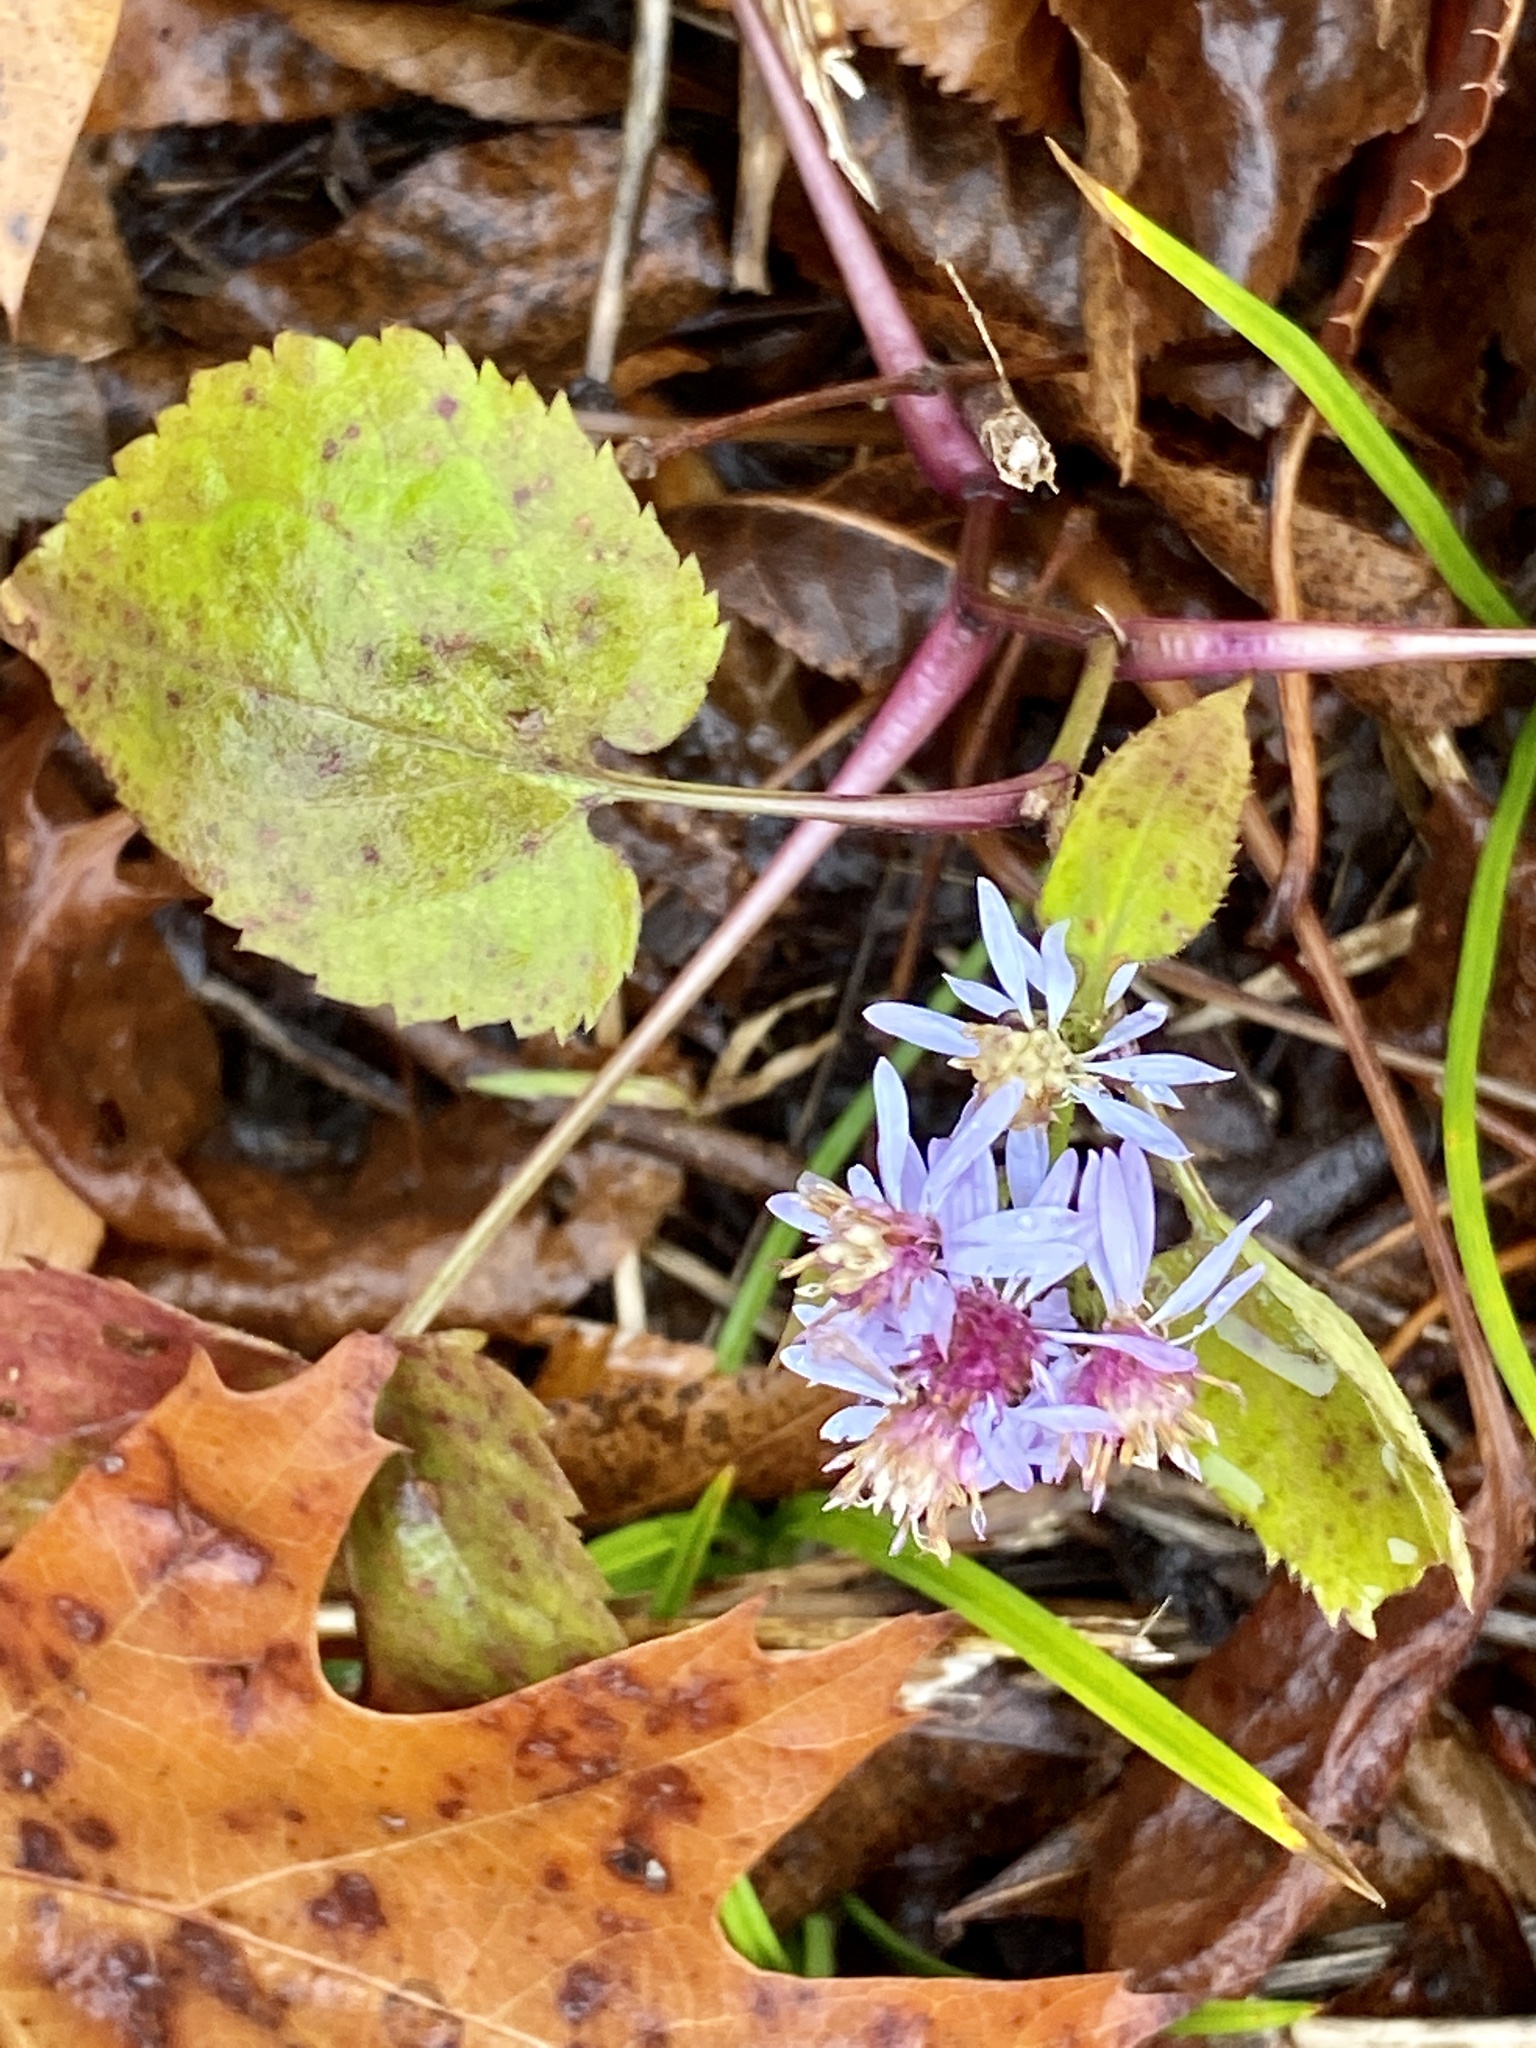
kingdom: Plantae
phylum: Tracheophyta
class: Magnoliopsida
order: Asterales
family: Asteraceae
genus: Symphyotrichum
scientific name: Symphyotrichum cordifolium
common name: Beeweed
